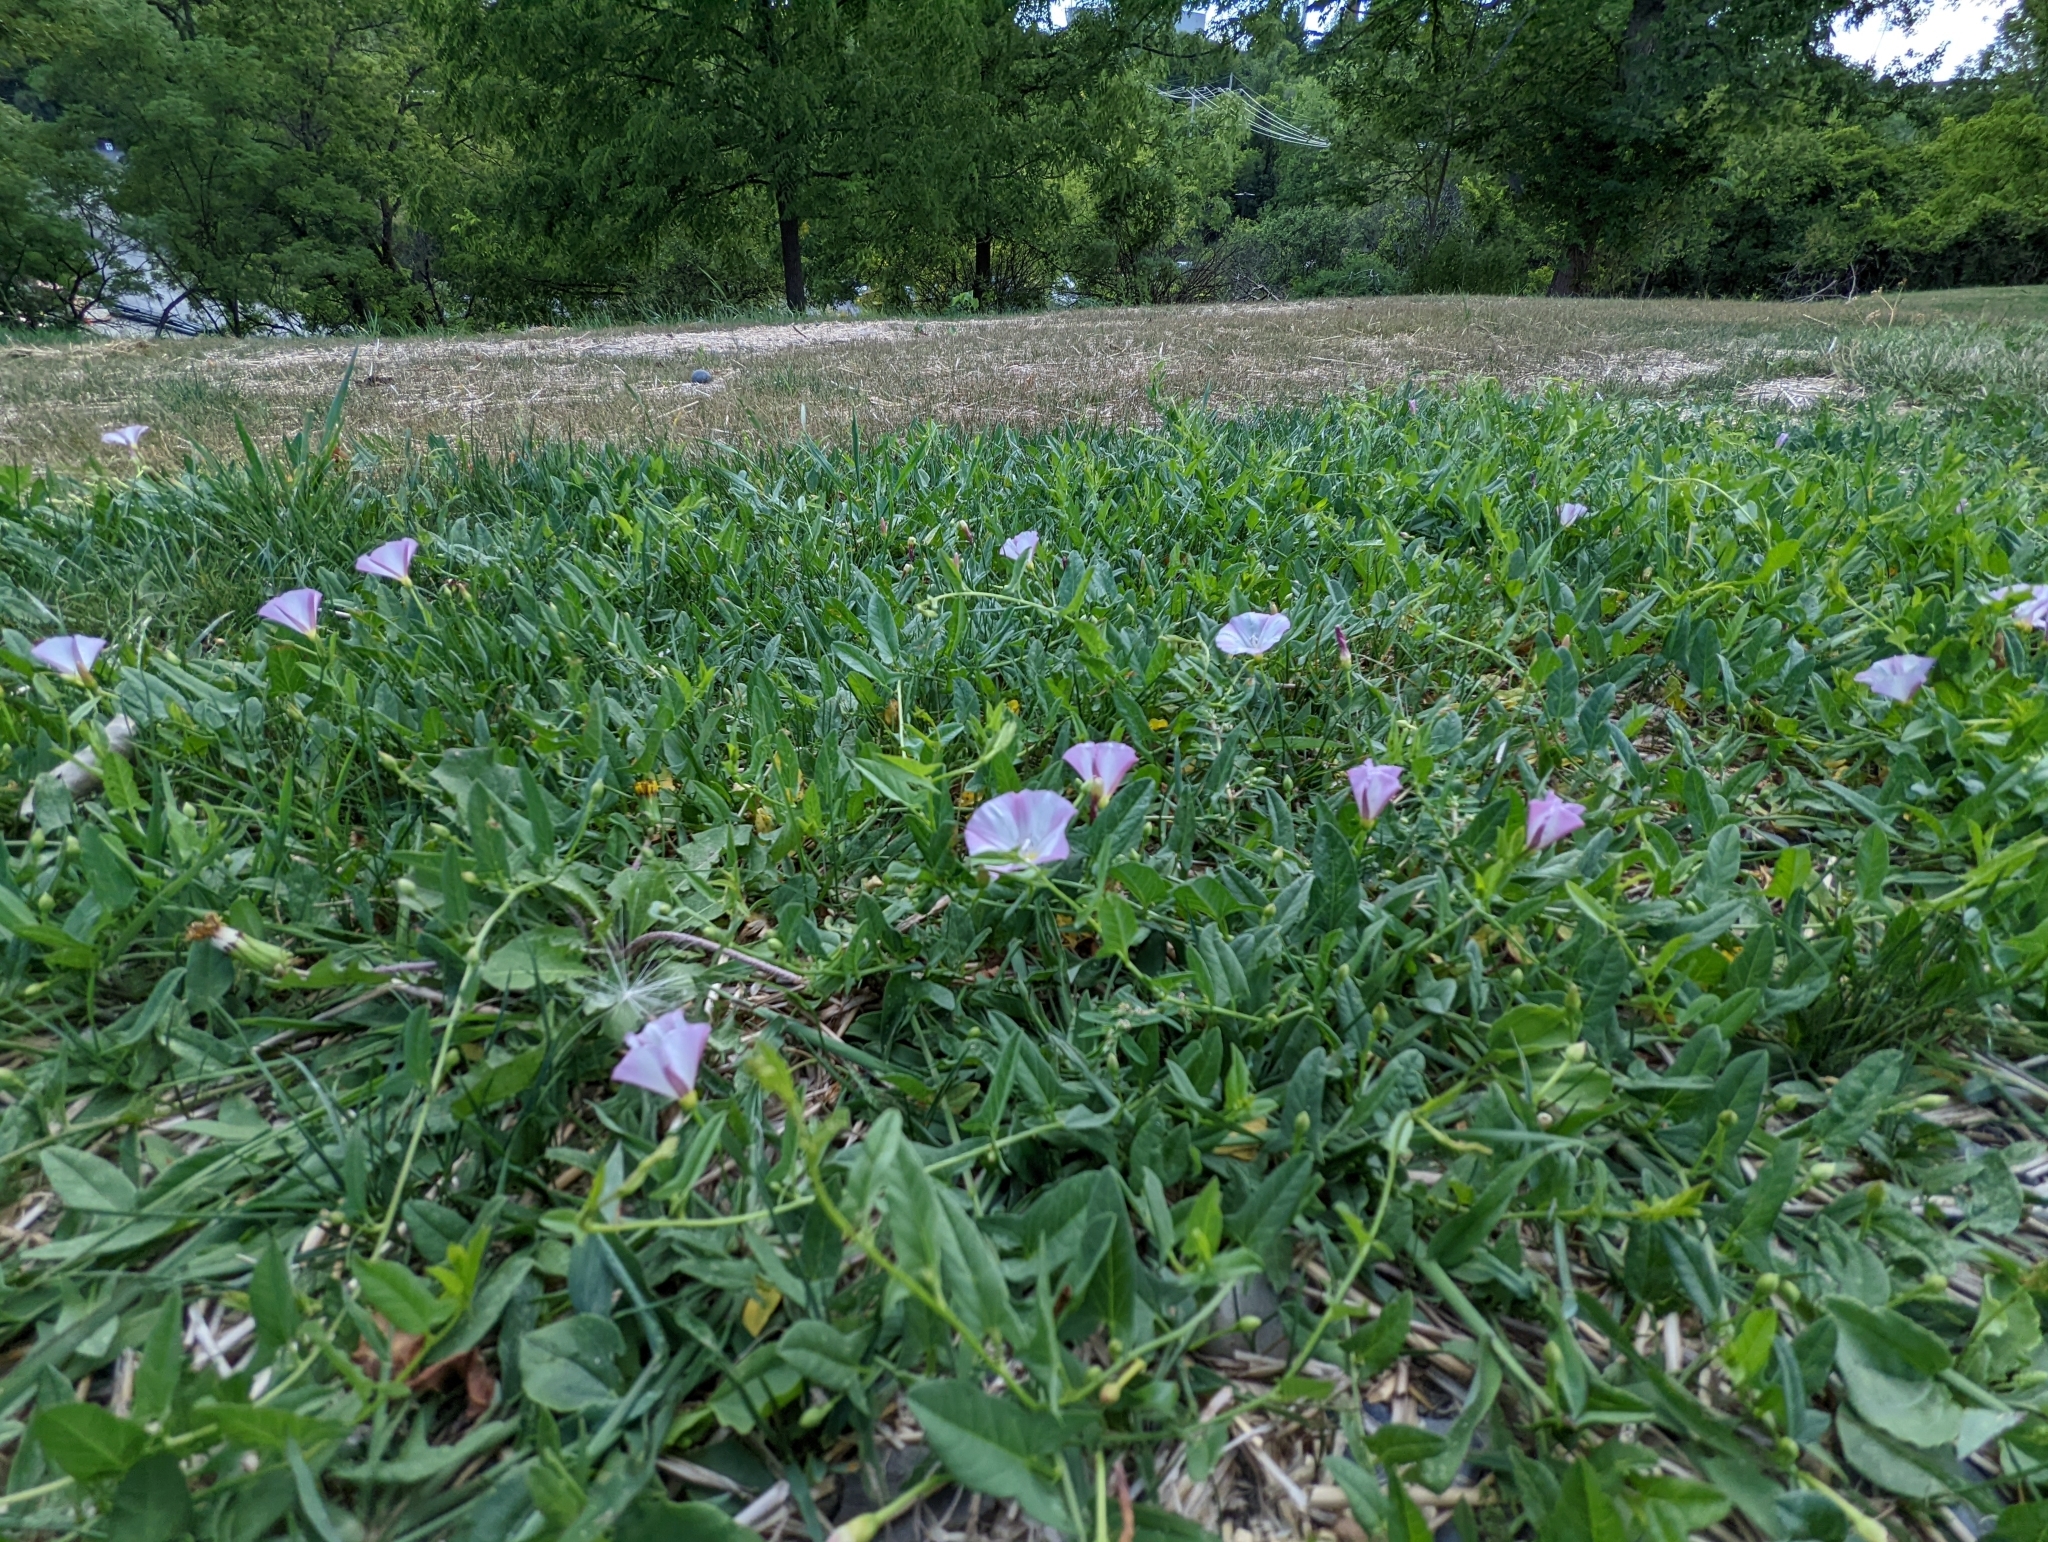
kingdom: Plantae
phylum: Tracheophyta
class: Magnoliopsida
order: Solanales
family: Convolvulaceae
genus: Convolvulus
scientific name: Convolvulus arvensis
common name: Field bindweed
